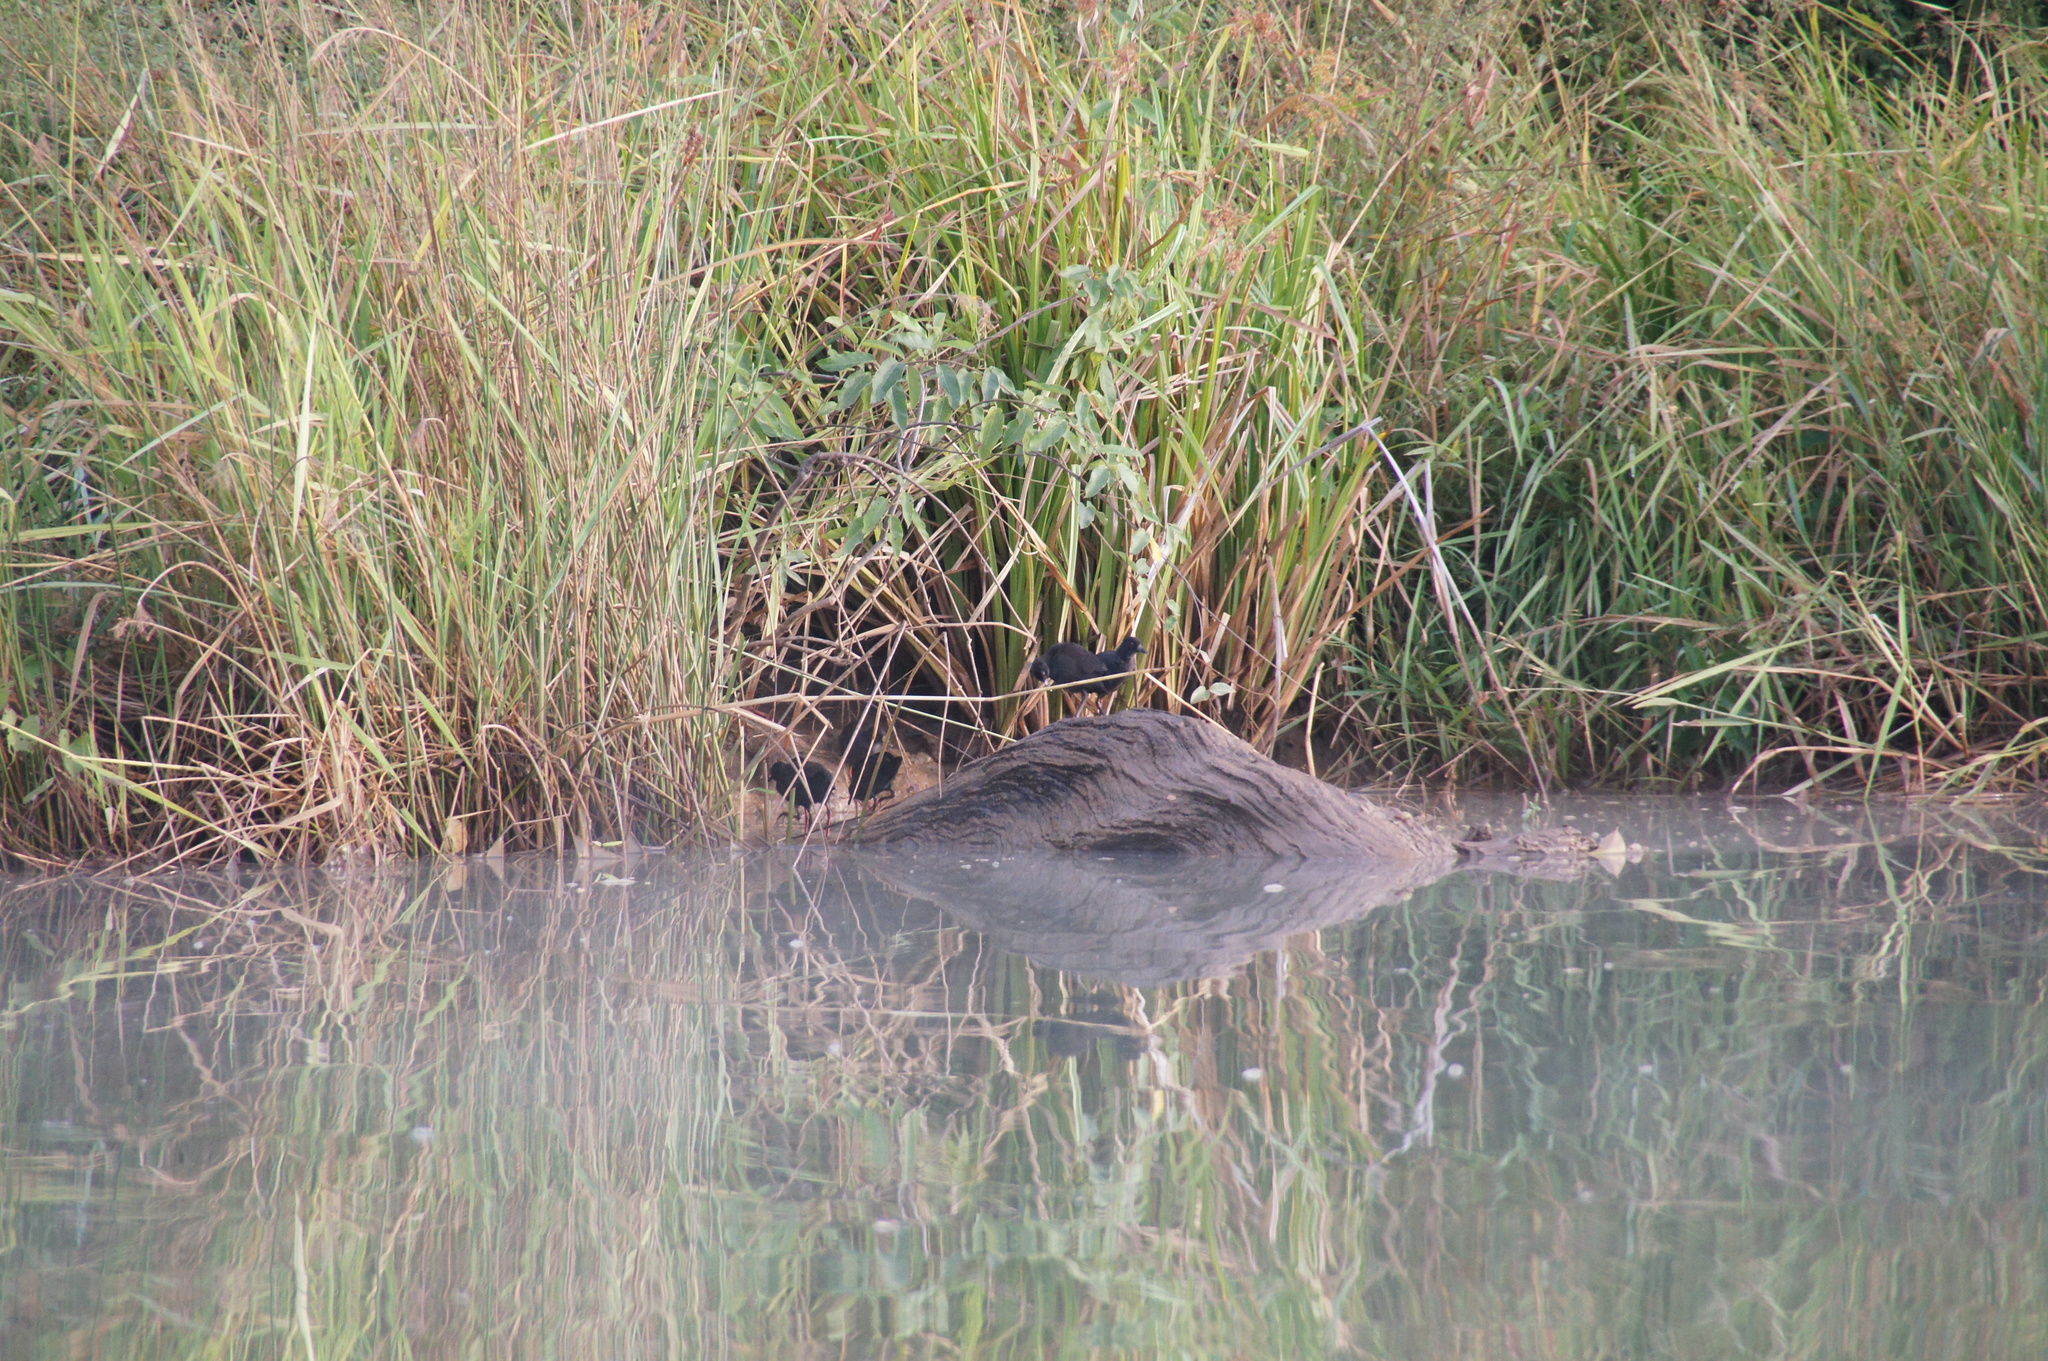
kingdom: Animalia
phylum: Chordata
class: Aves
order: Gruiformes
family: Rallidae
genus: Amaurornis
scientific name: Amaurornis flavirostra
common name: Black crake
